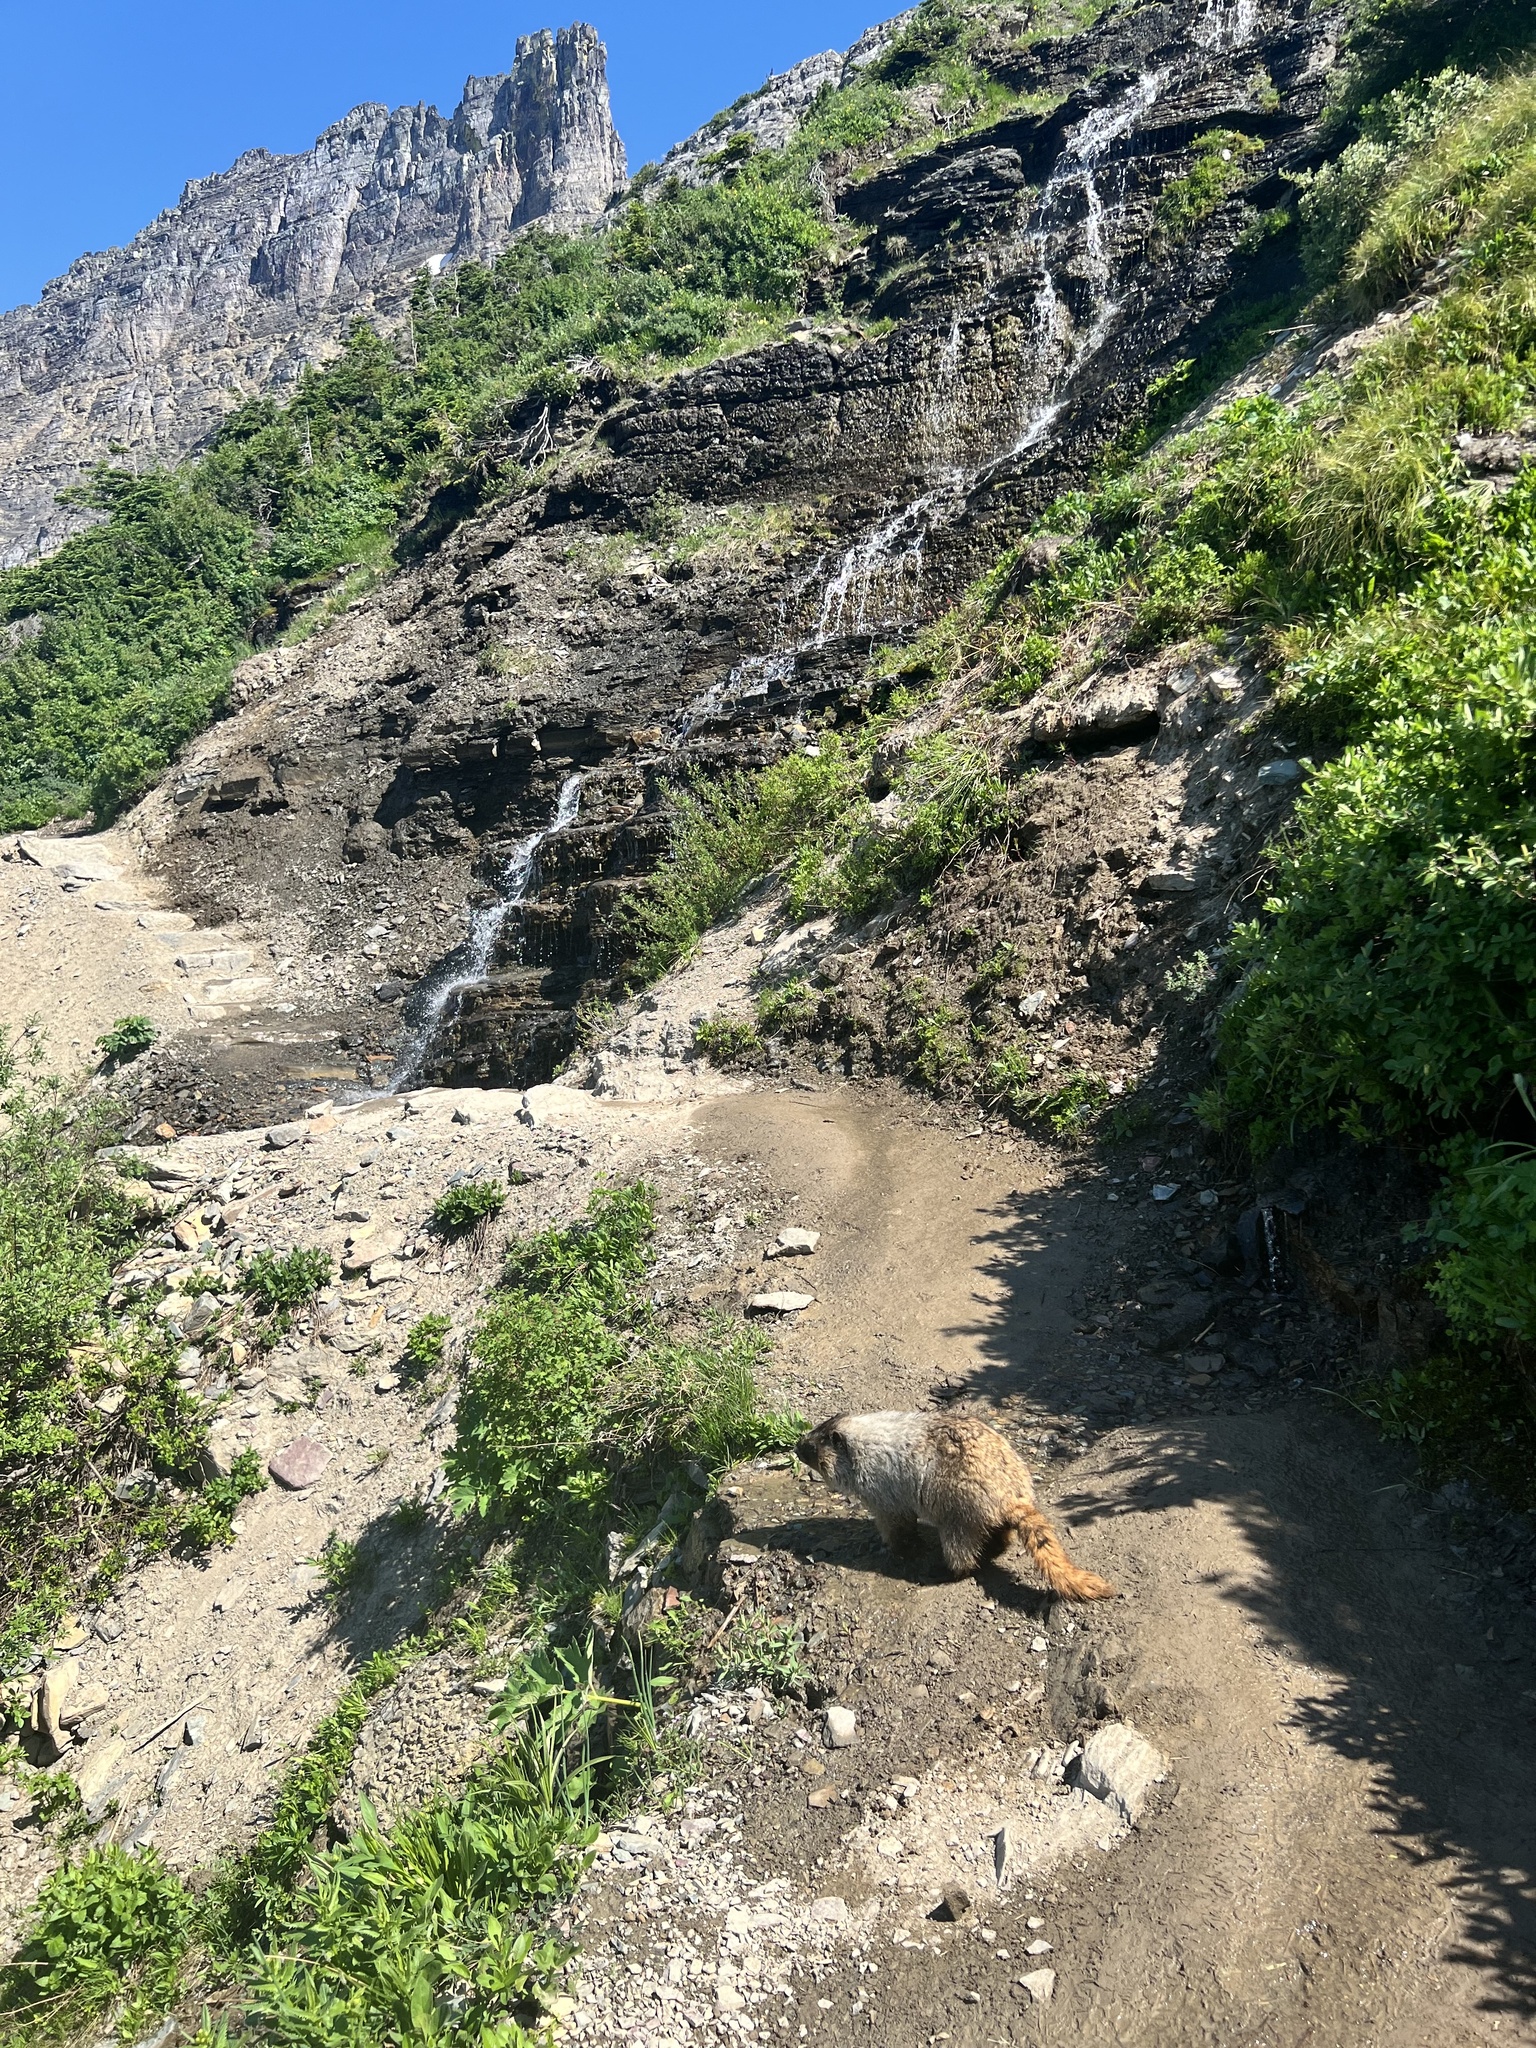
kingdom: Animalia
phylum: Chordata
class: Mammalia
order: Rodentia
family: Sciuridae
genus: Marmota
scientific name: Marmota caligata
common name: Hoary marmot
